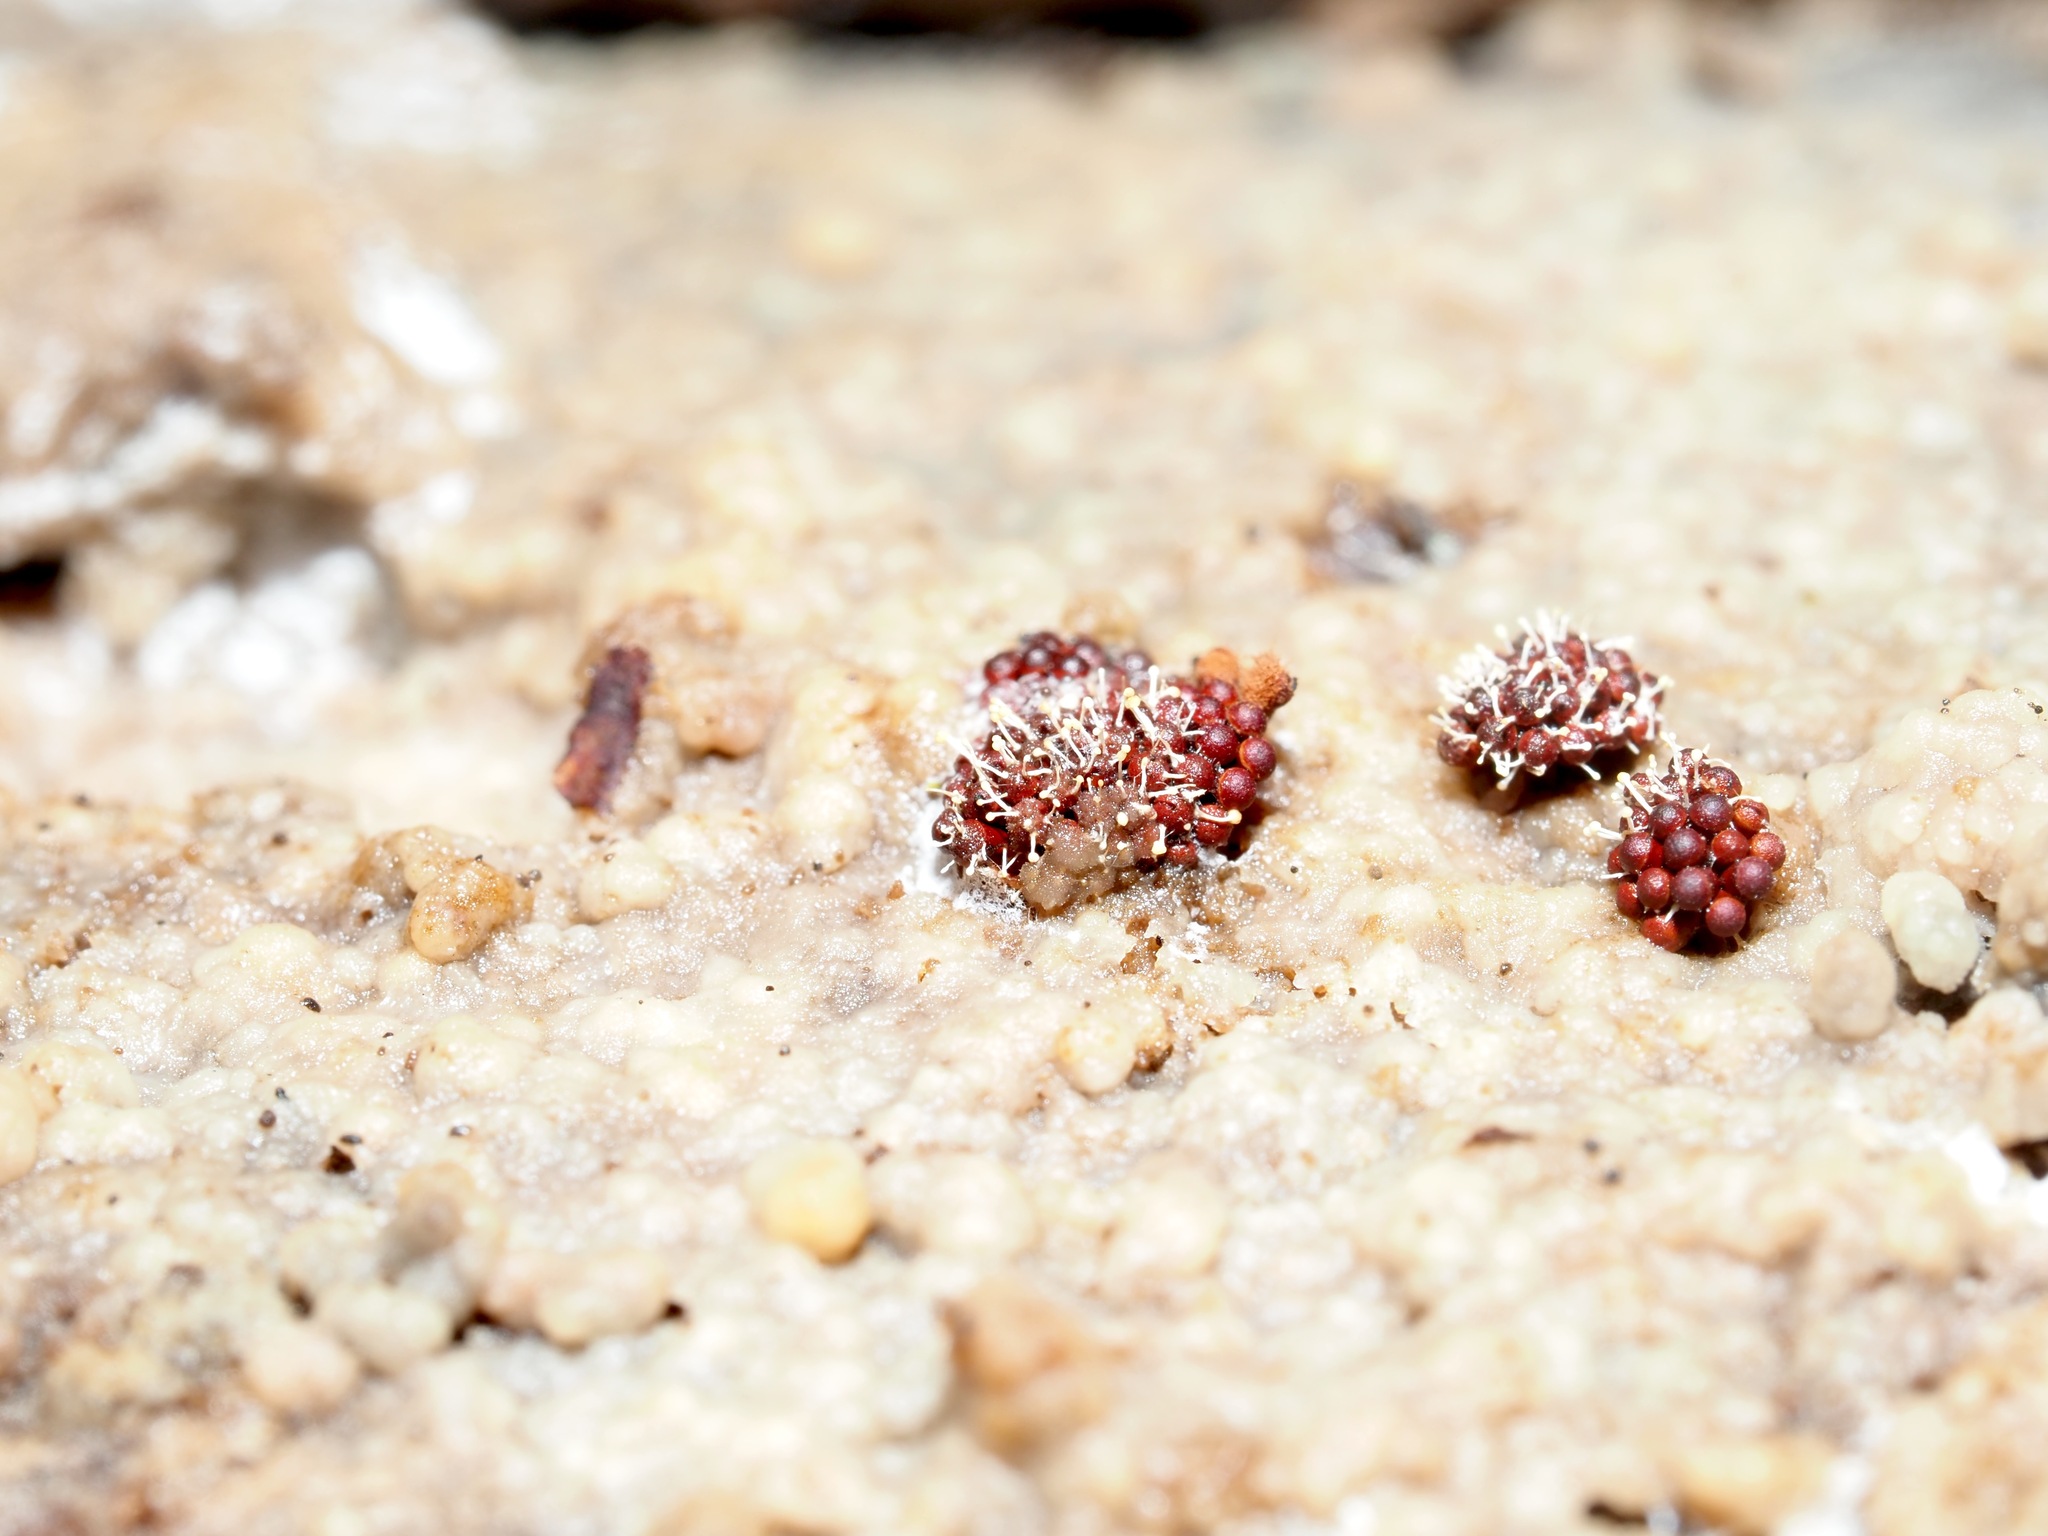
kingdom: Protozoa
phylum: Mycetozoa
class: Myxomycetes
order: Trichiales
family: Trichiaceae
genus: Metatrichia
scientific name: Metatrichia vesparia
